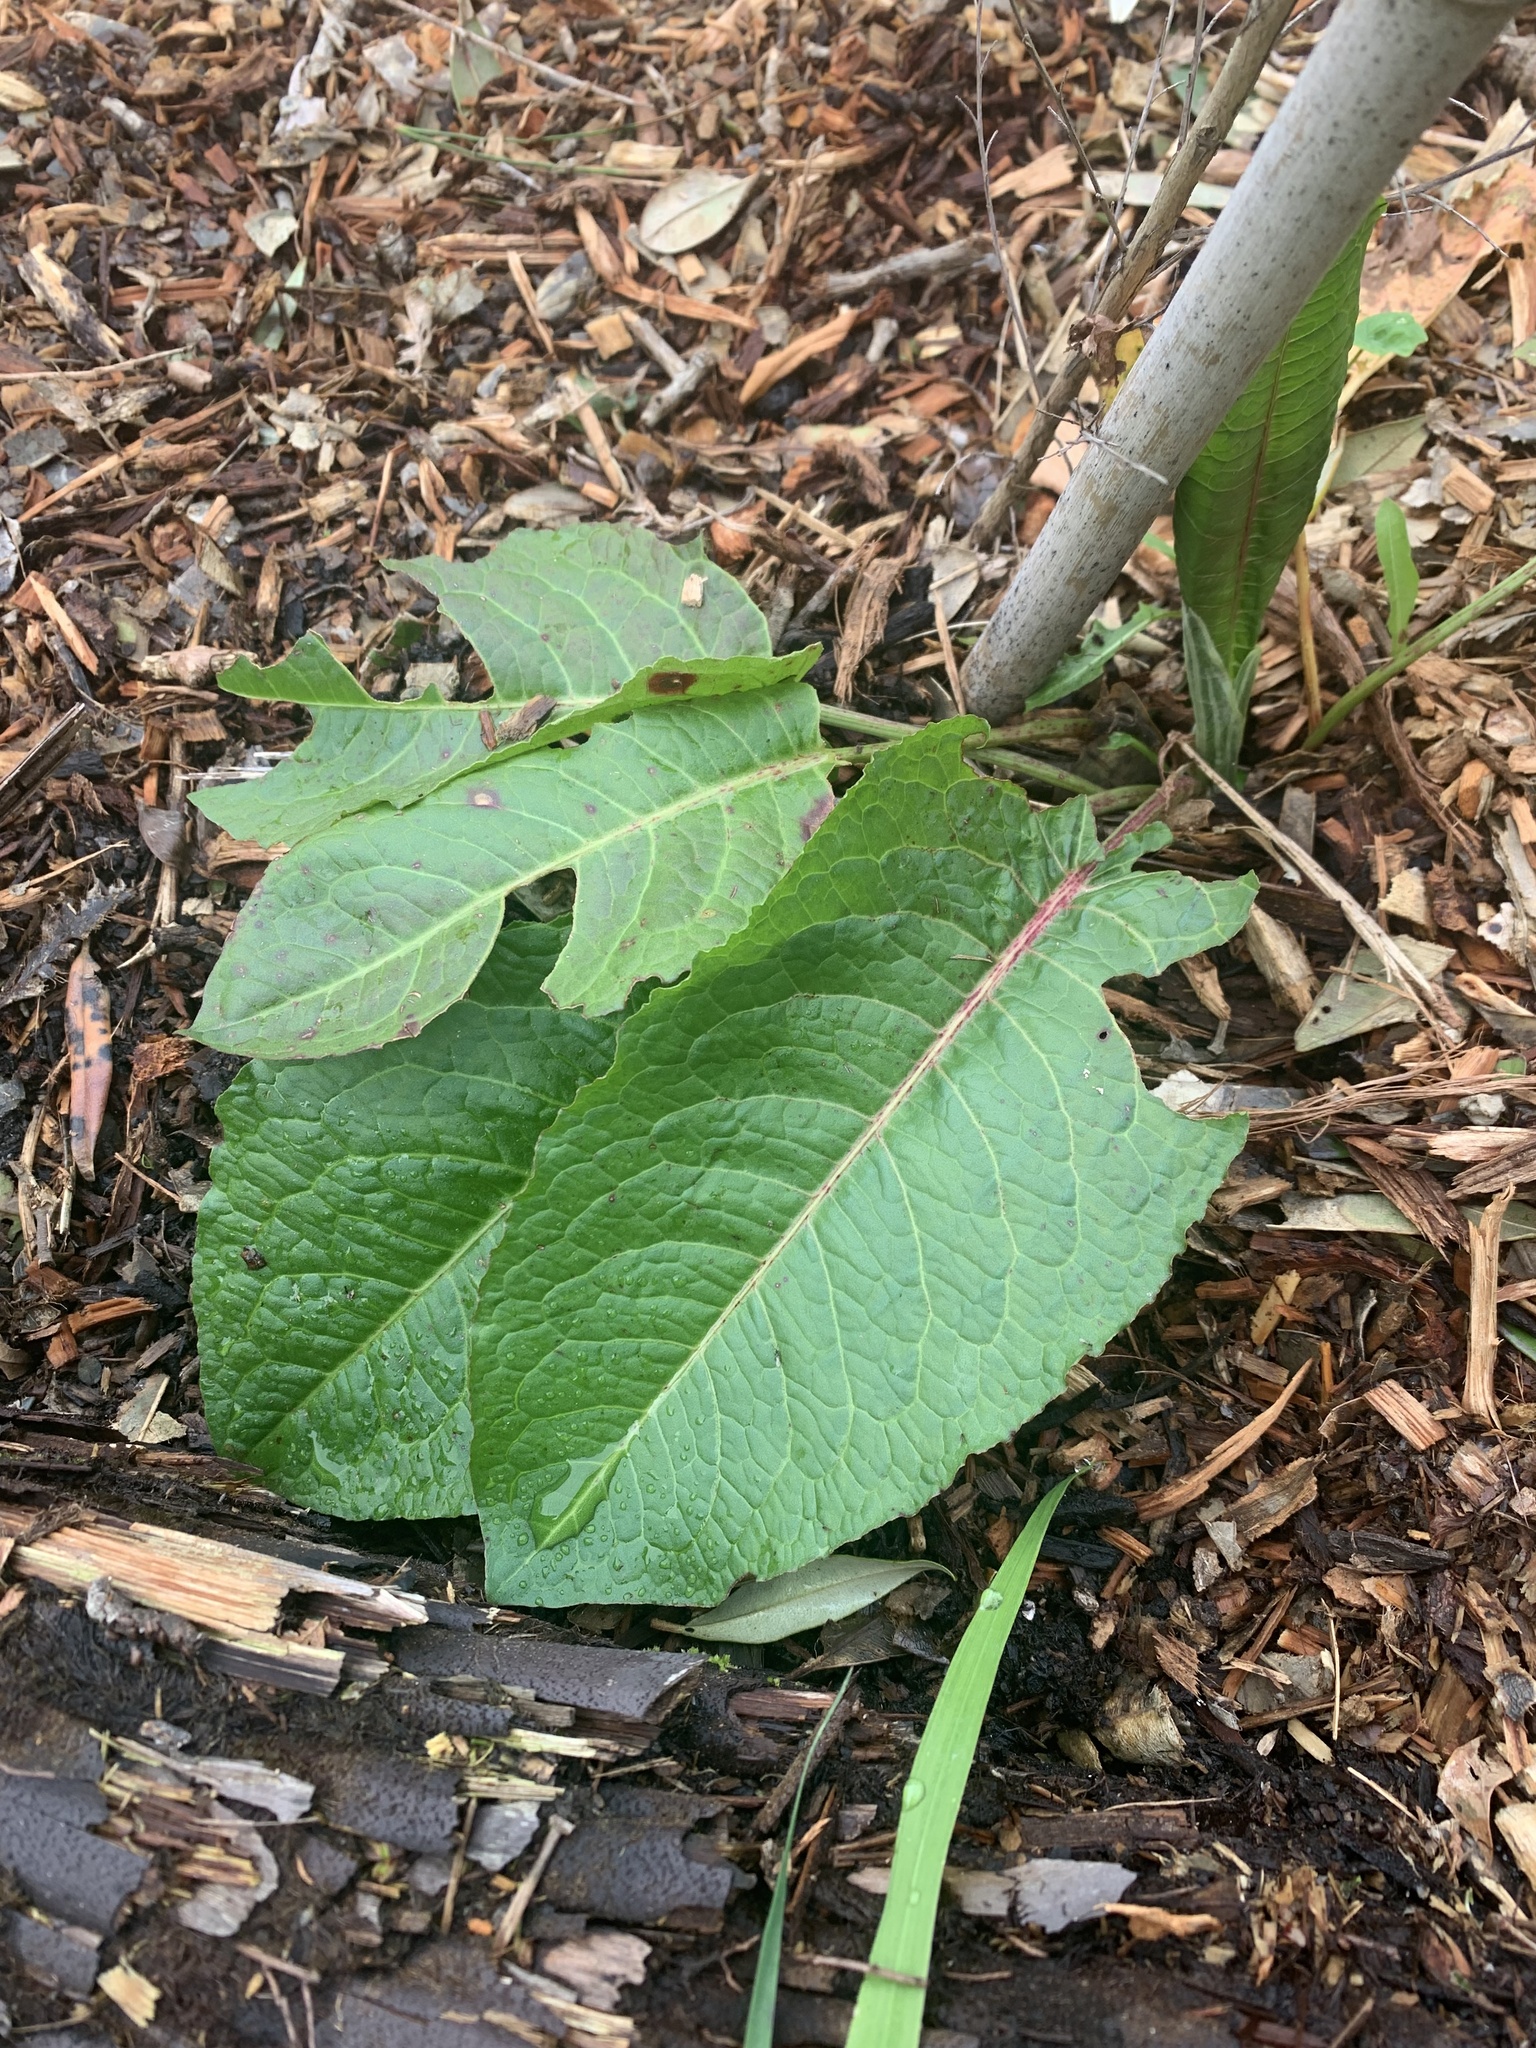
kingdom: Plantae
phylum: Tracheophyta
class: Magnoliopsida
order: Caryophyllales
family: Polygonaceae
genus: Rumex
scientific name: Rumex obtusifolius
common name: Bitter dock
